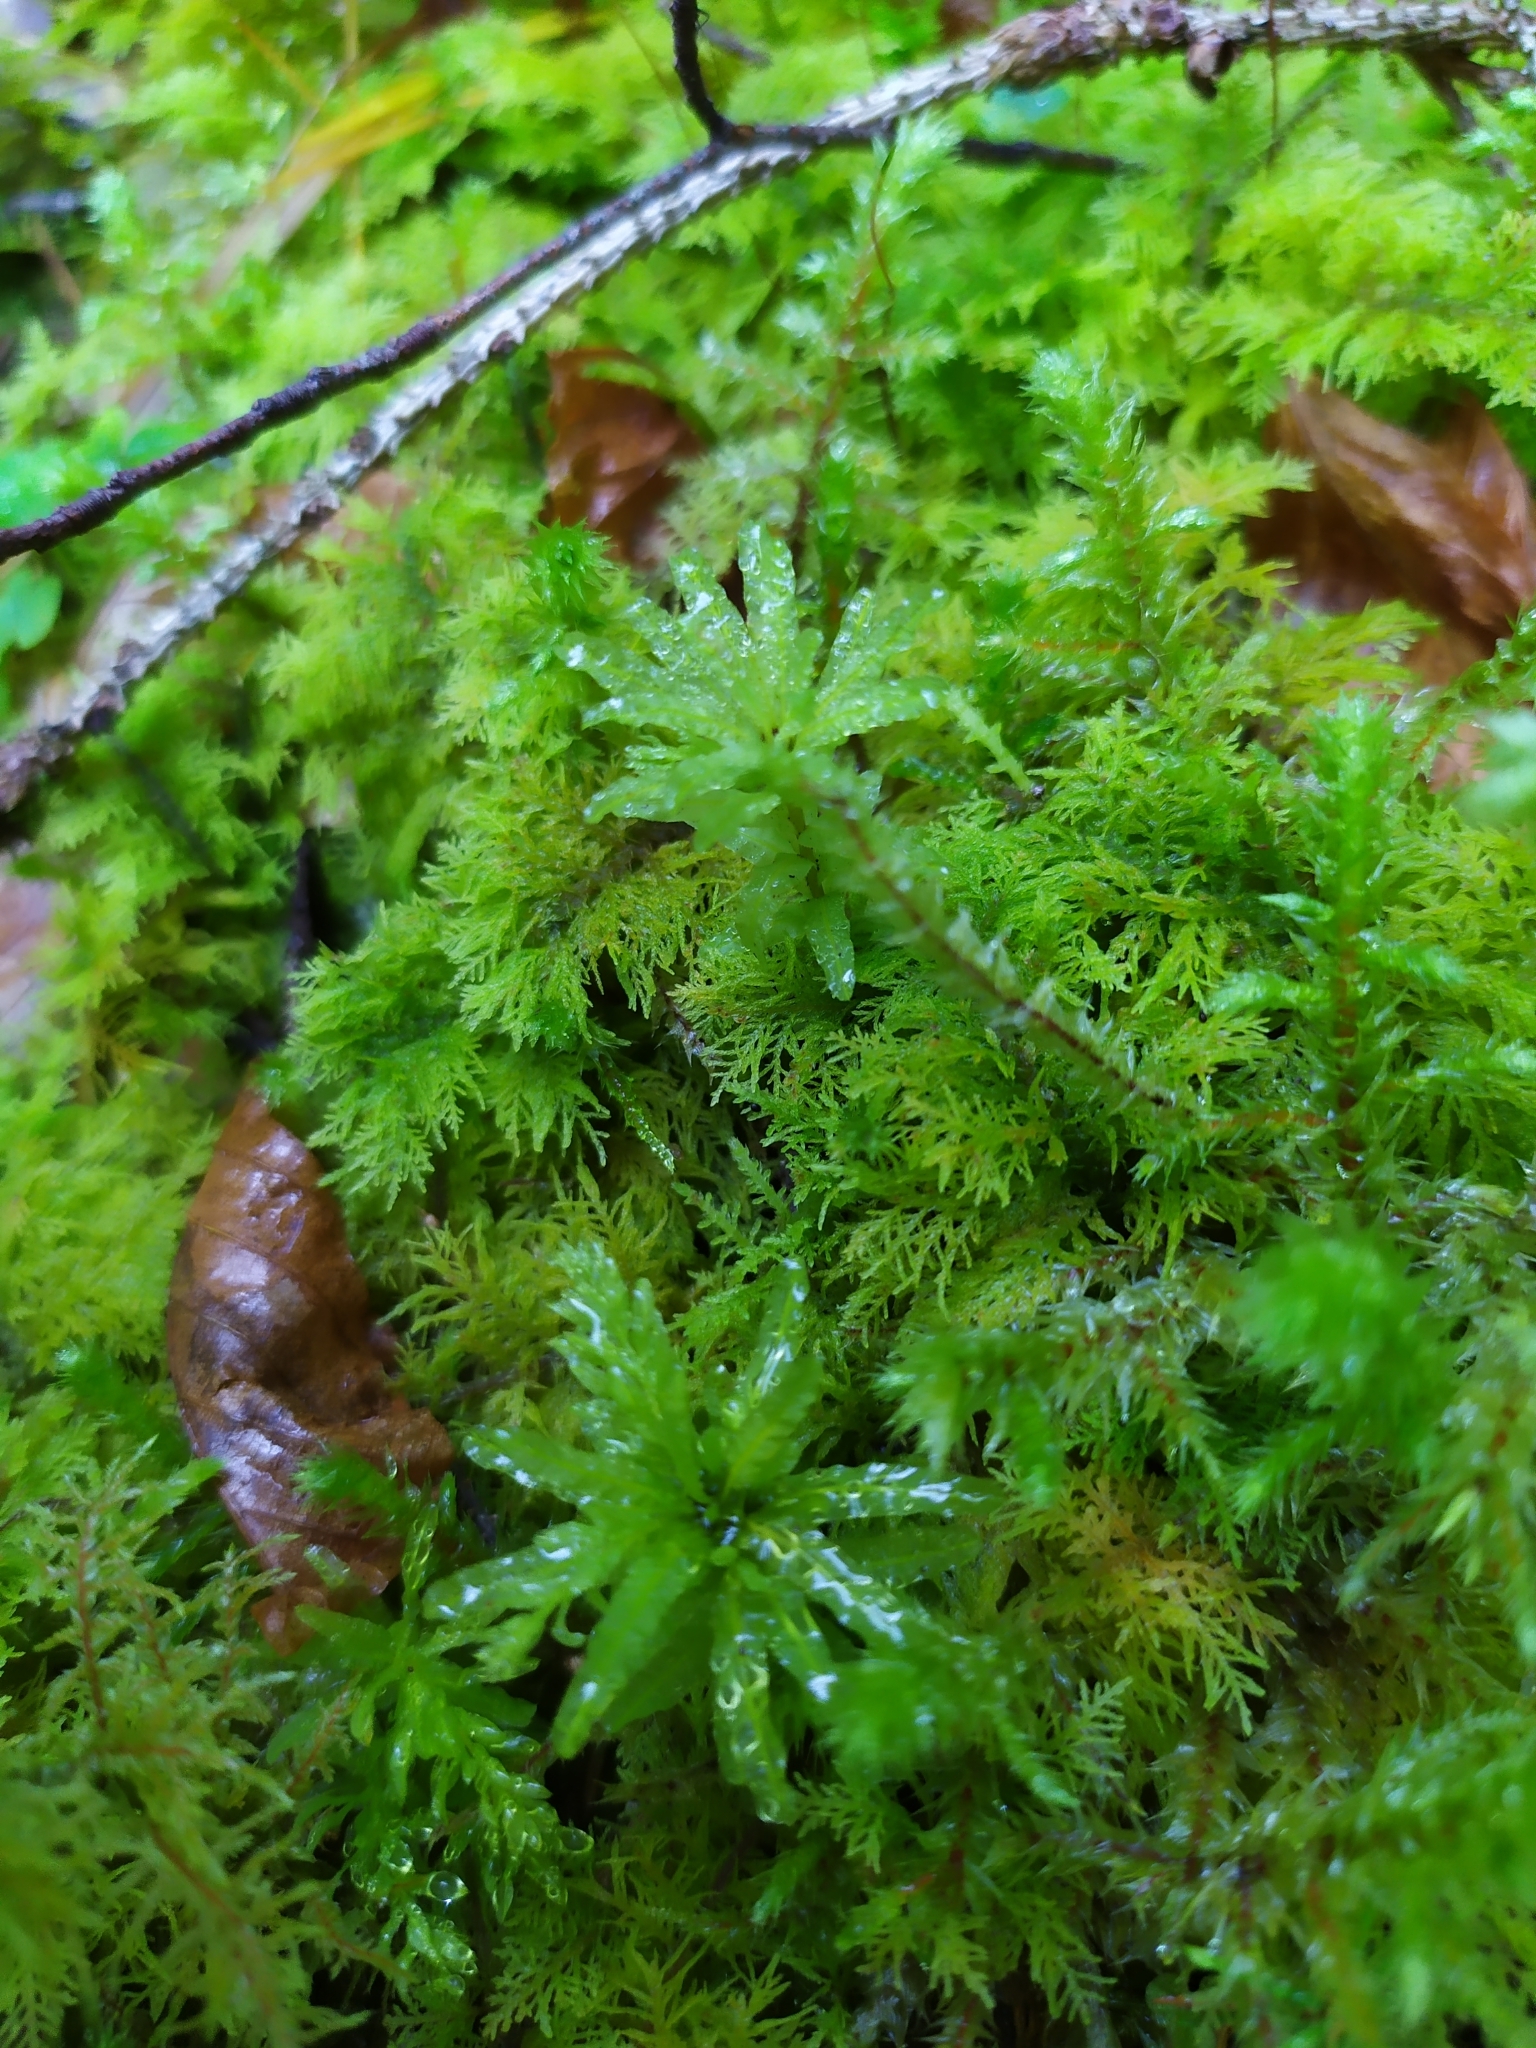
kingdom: Plantae
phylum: Bryophyta
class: Bryopsida
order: Bryales
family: Mniaceae
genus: Plagiomnium
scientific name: Plagiomnium undulatum
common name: Hart's-tongue thyme-moss
